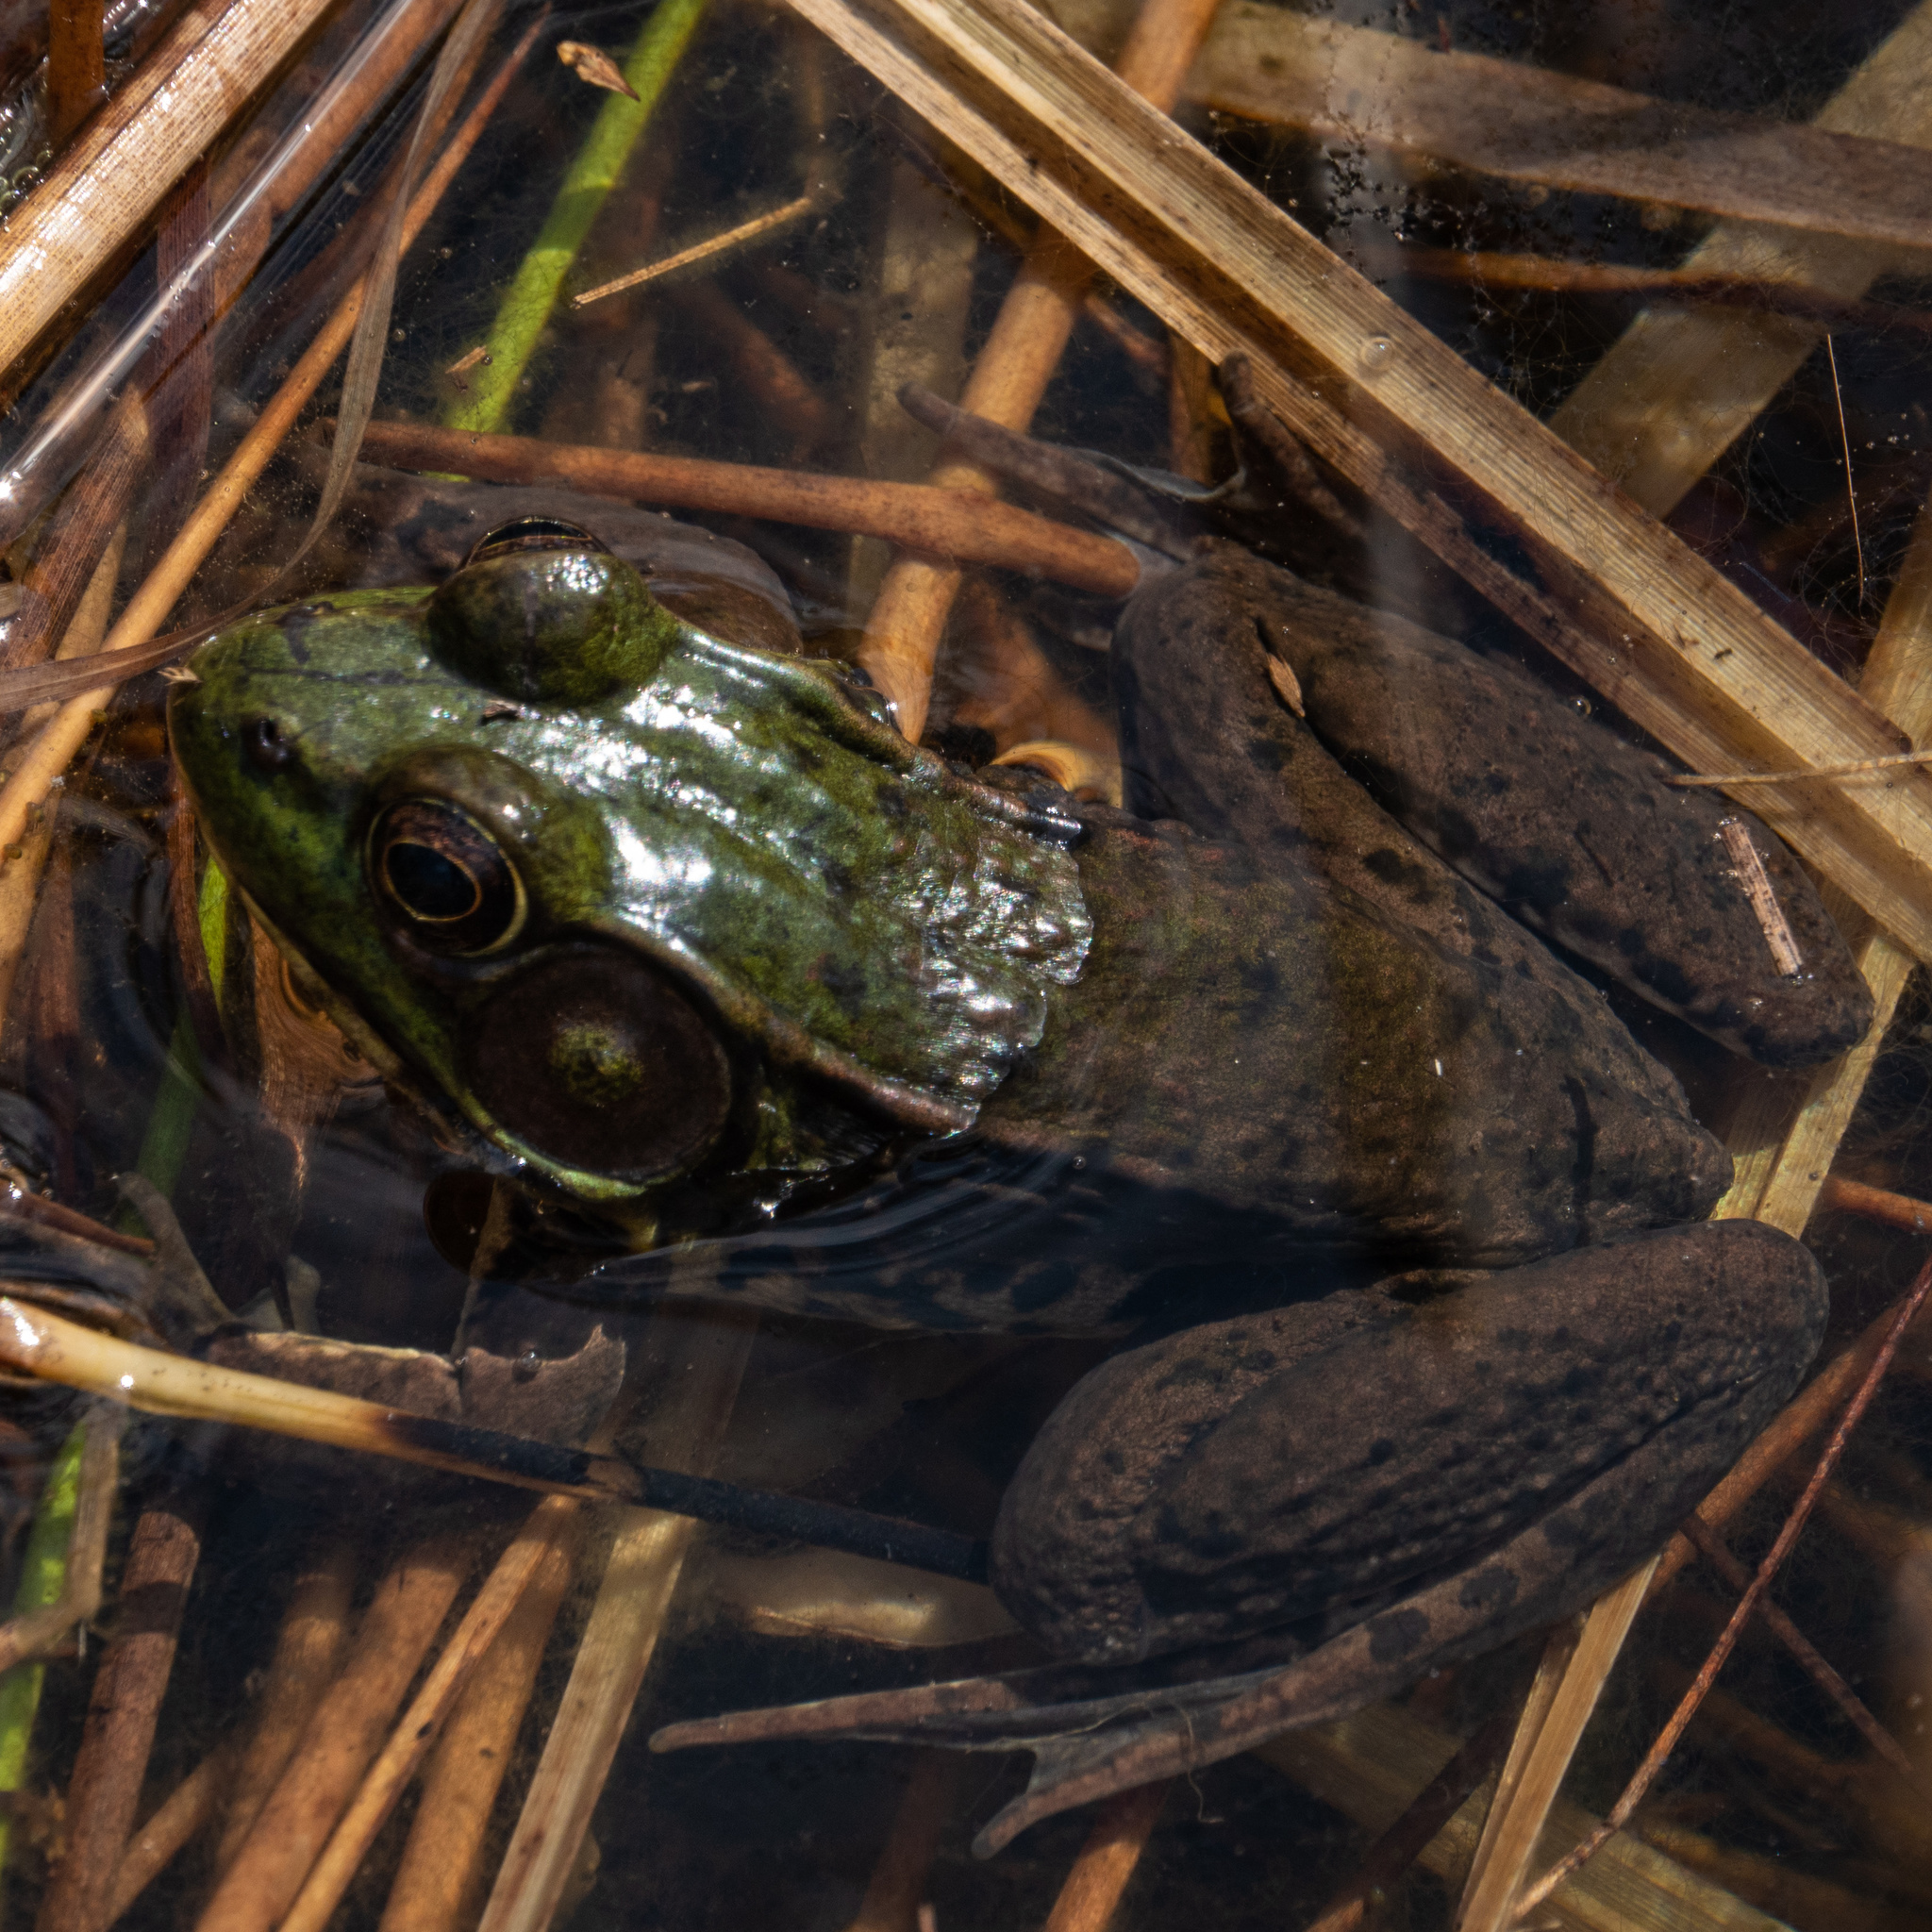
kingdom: Animalia
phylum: Chordata
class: Amphibia
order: Anura
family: Ranidae
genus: Lithobates
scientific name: Lithobates clamitans
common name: Green frog
